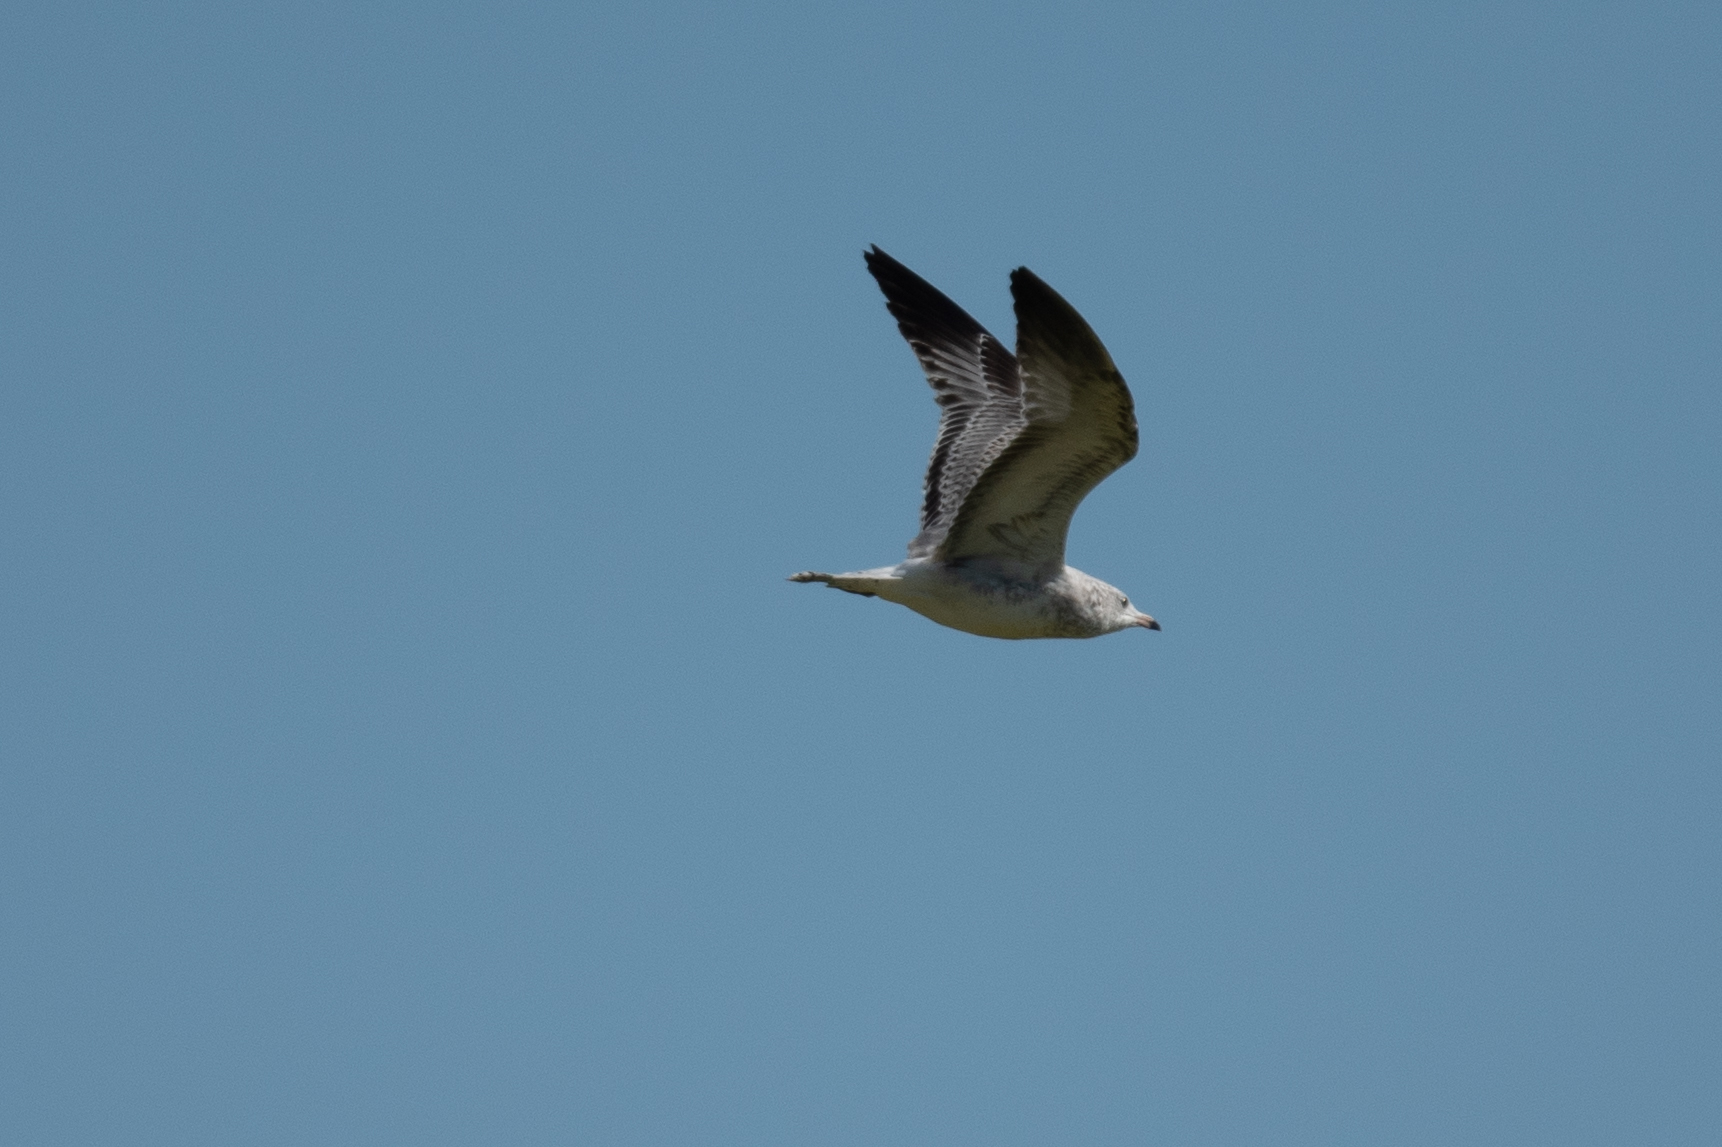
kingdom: Animalia
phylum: Chordata
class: Aves
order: Charadriiformes
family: Laridae
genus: Larus
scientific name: Larus delawarensis
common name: Ring-billed gull
